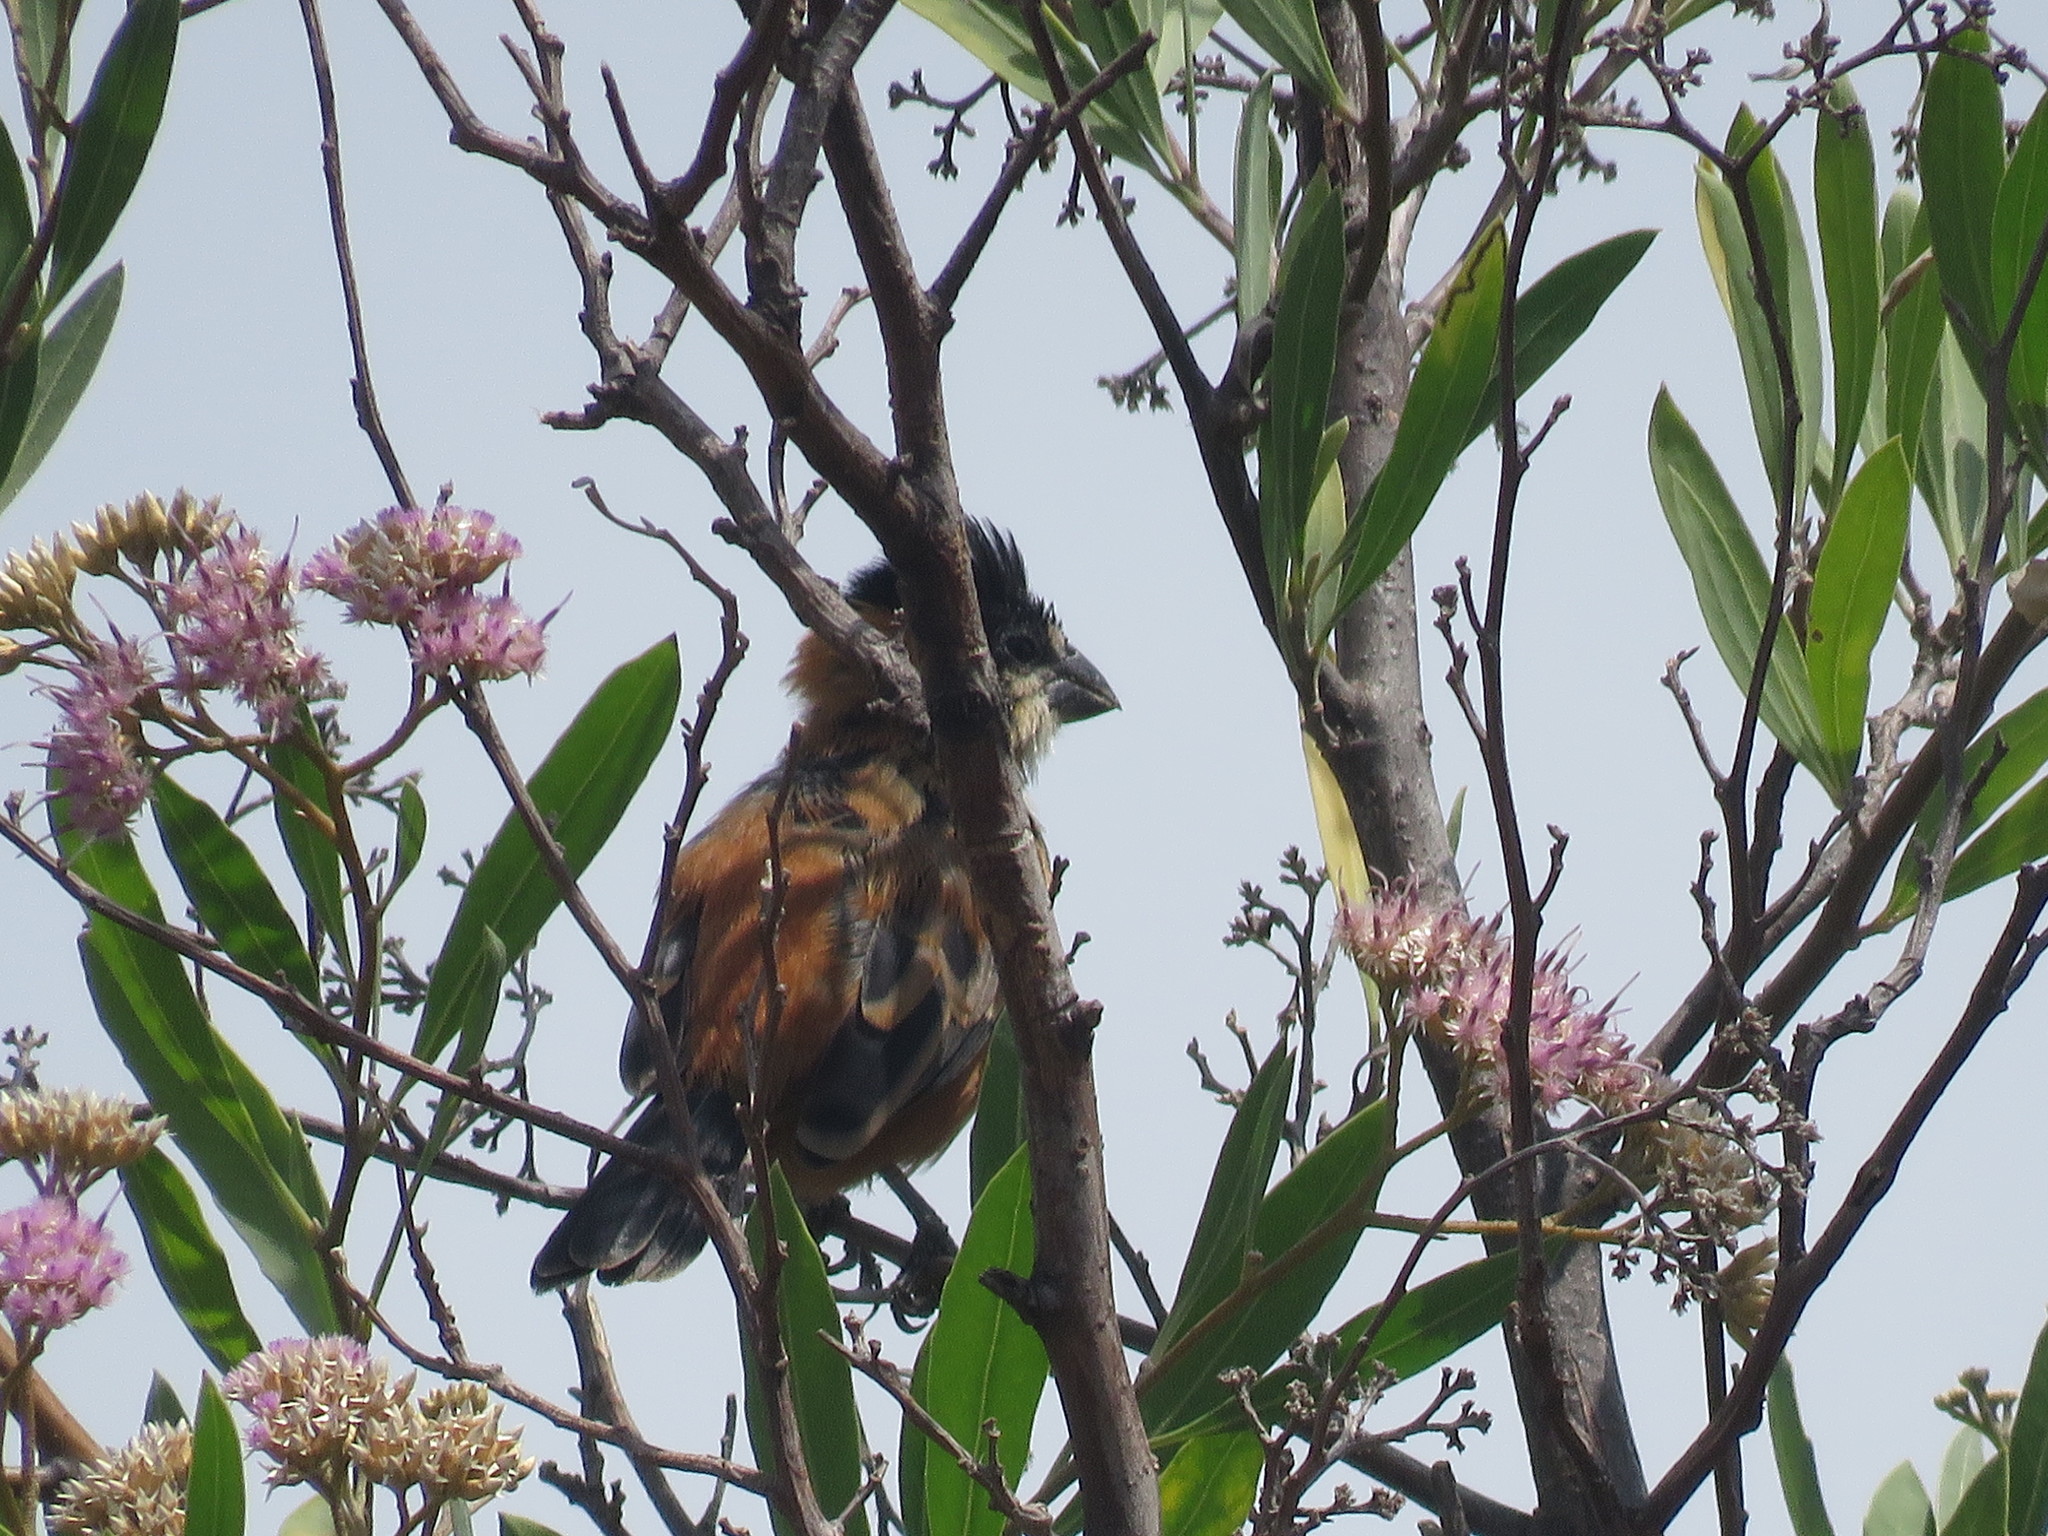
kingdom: Animalia
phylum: Chordata
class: Aves
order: Passeriformes
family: Thraupidae
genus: Sporophila
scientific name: Sporophila collaris
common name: Rusty-collared seedeater
